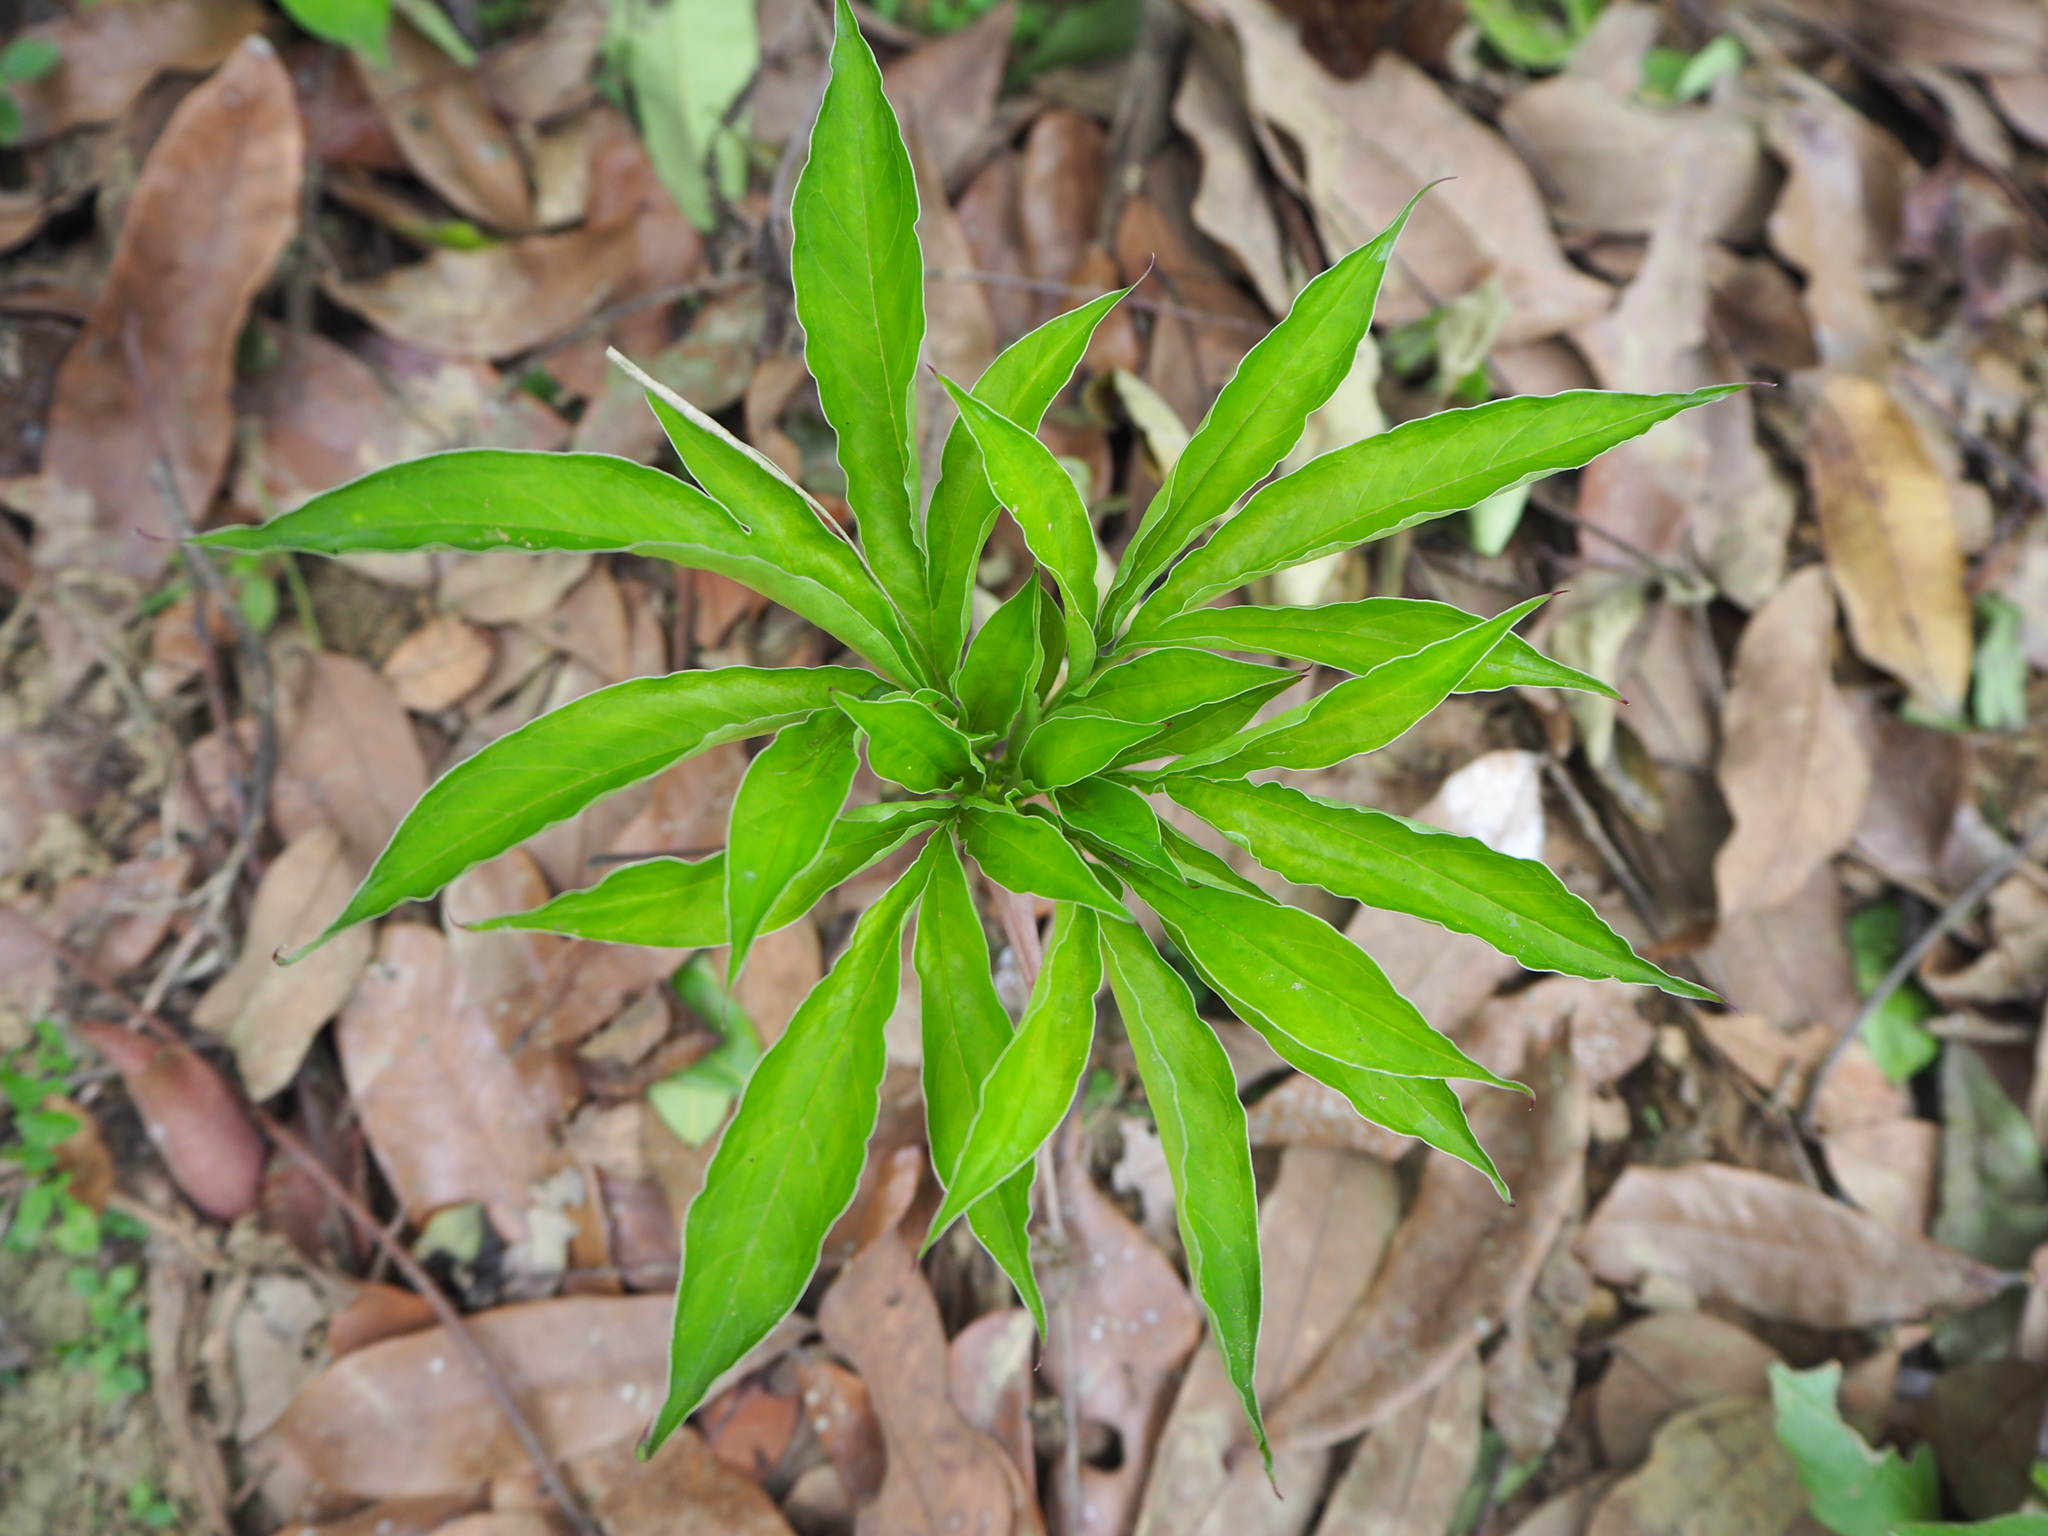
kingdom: Plantae
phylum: Tracheophyta
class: Liliopsida
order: Alismatales
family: Araceae
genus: Amorphophallus
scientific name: Amorphophallus henryi
